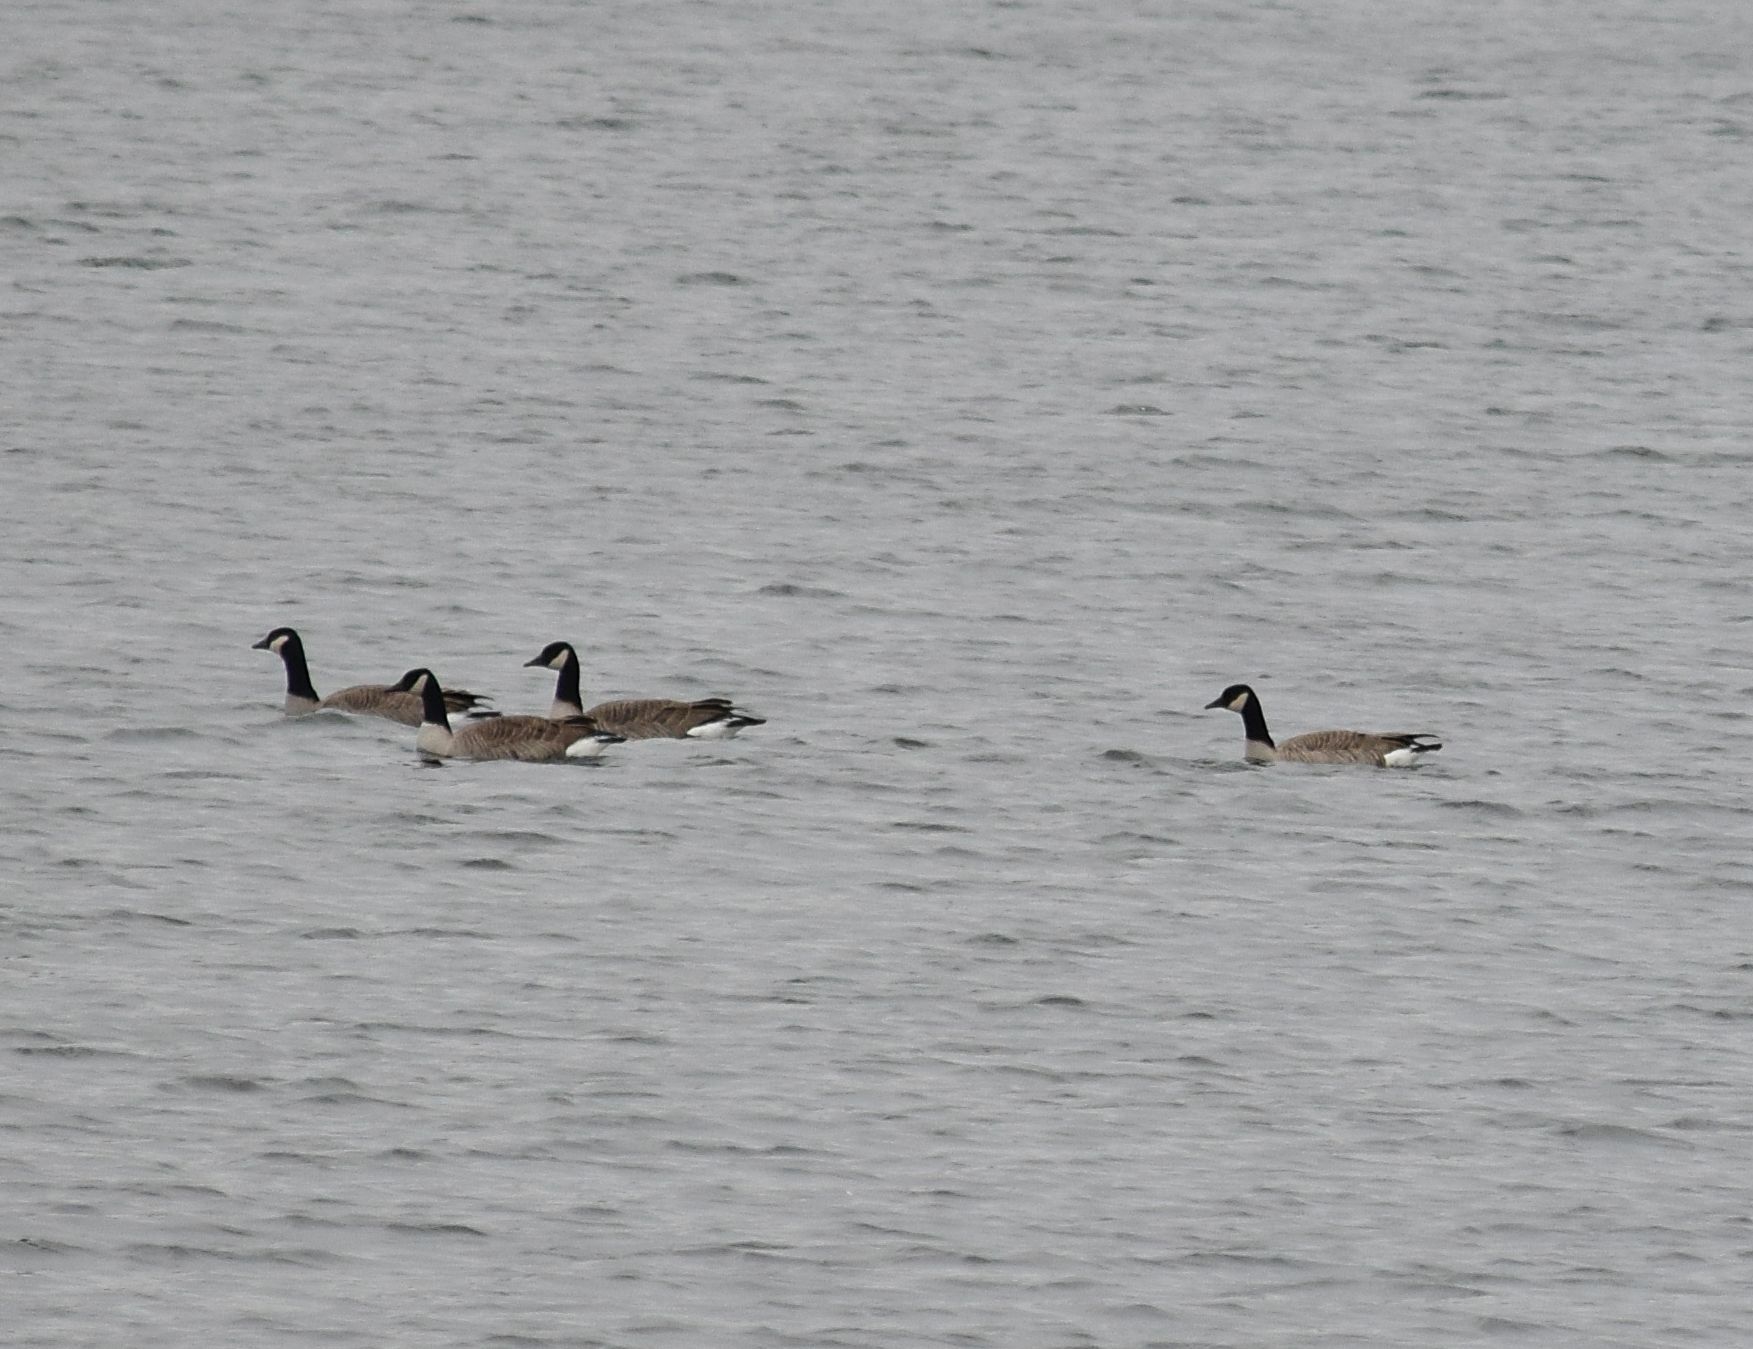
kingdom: Animalia
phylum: Chordata
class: Aves
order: Anseriformes
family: Anatidae
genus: Branta
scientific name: Branta canadensis
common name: Canada goose
